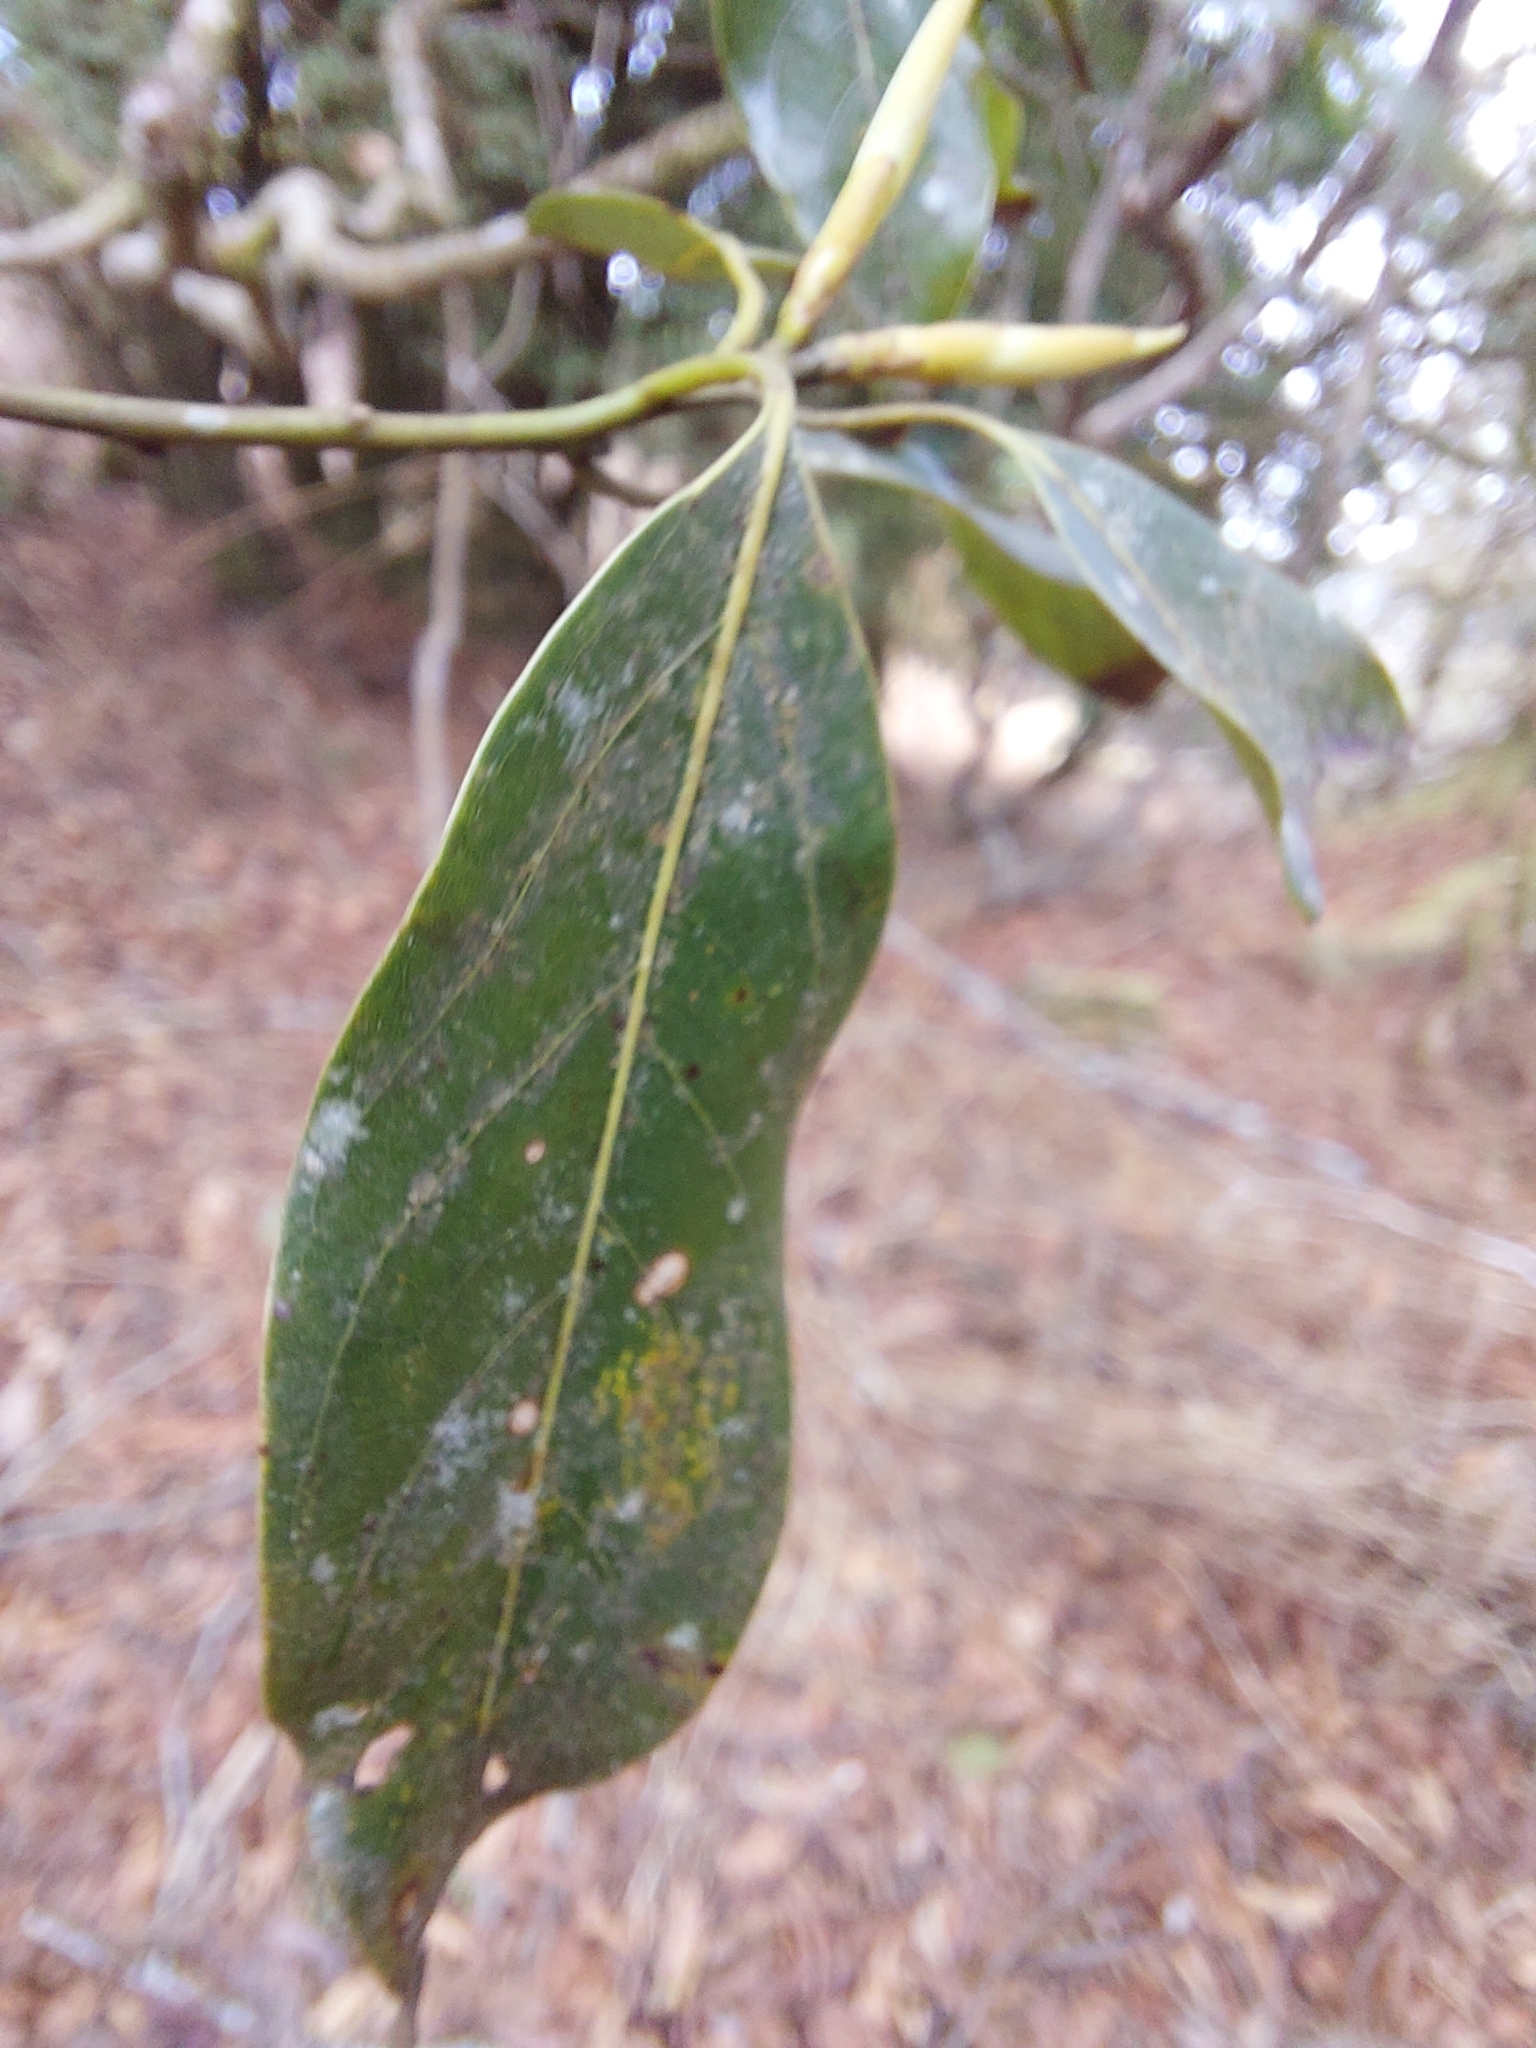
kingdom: Plantae
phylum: Tracheophyta
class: Magnoliopsida
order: Laurales
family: Lauraceae
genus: Neolitsea
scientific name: Neolitsea acuminatissima
